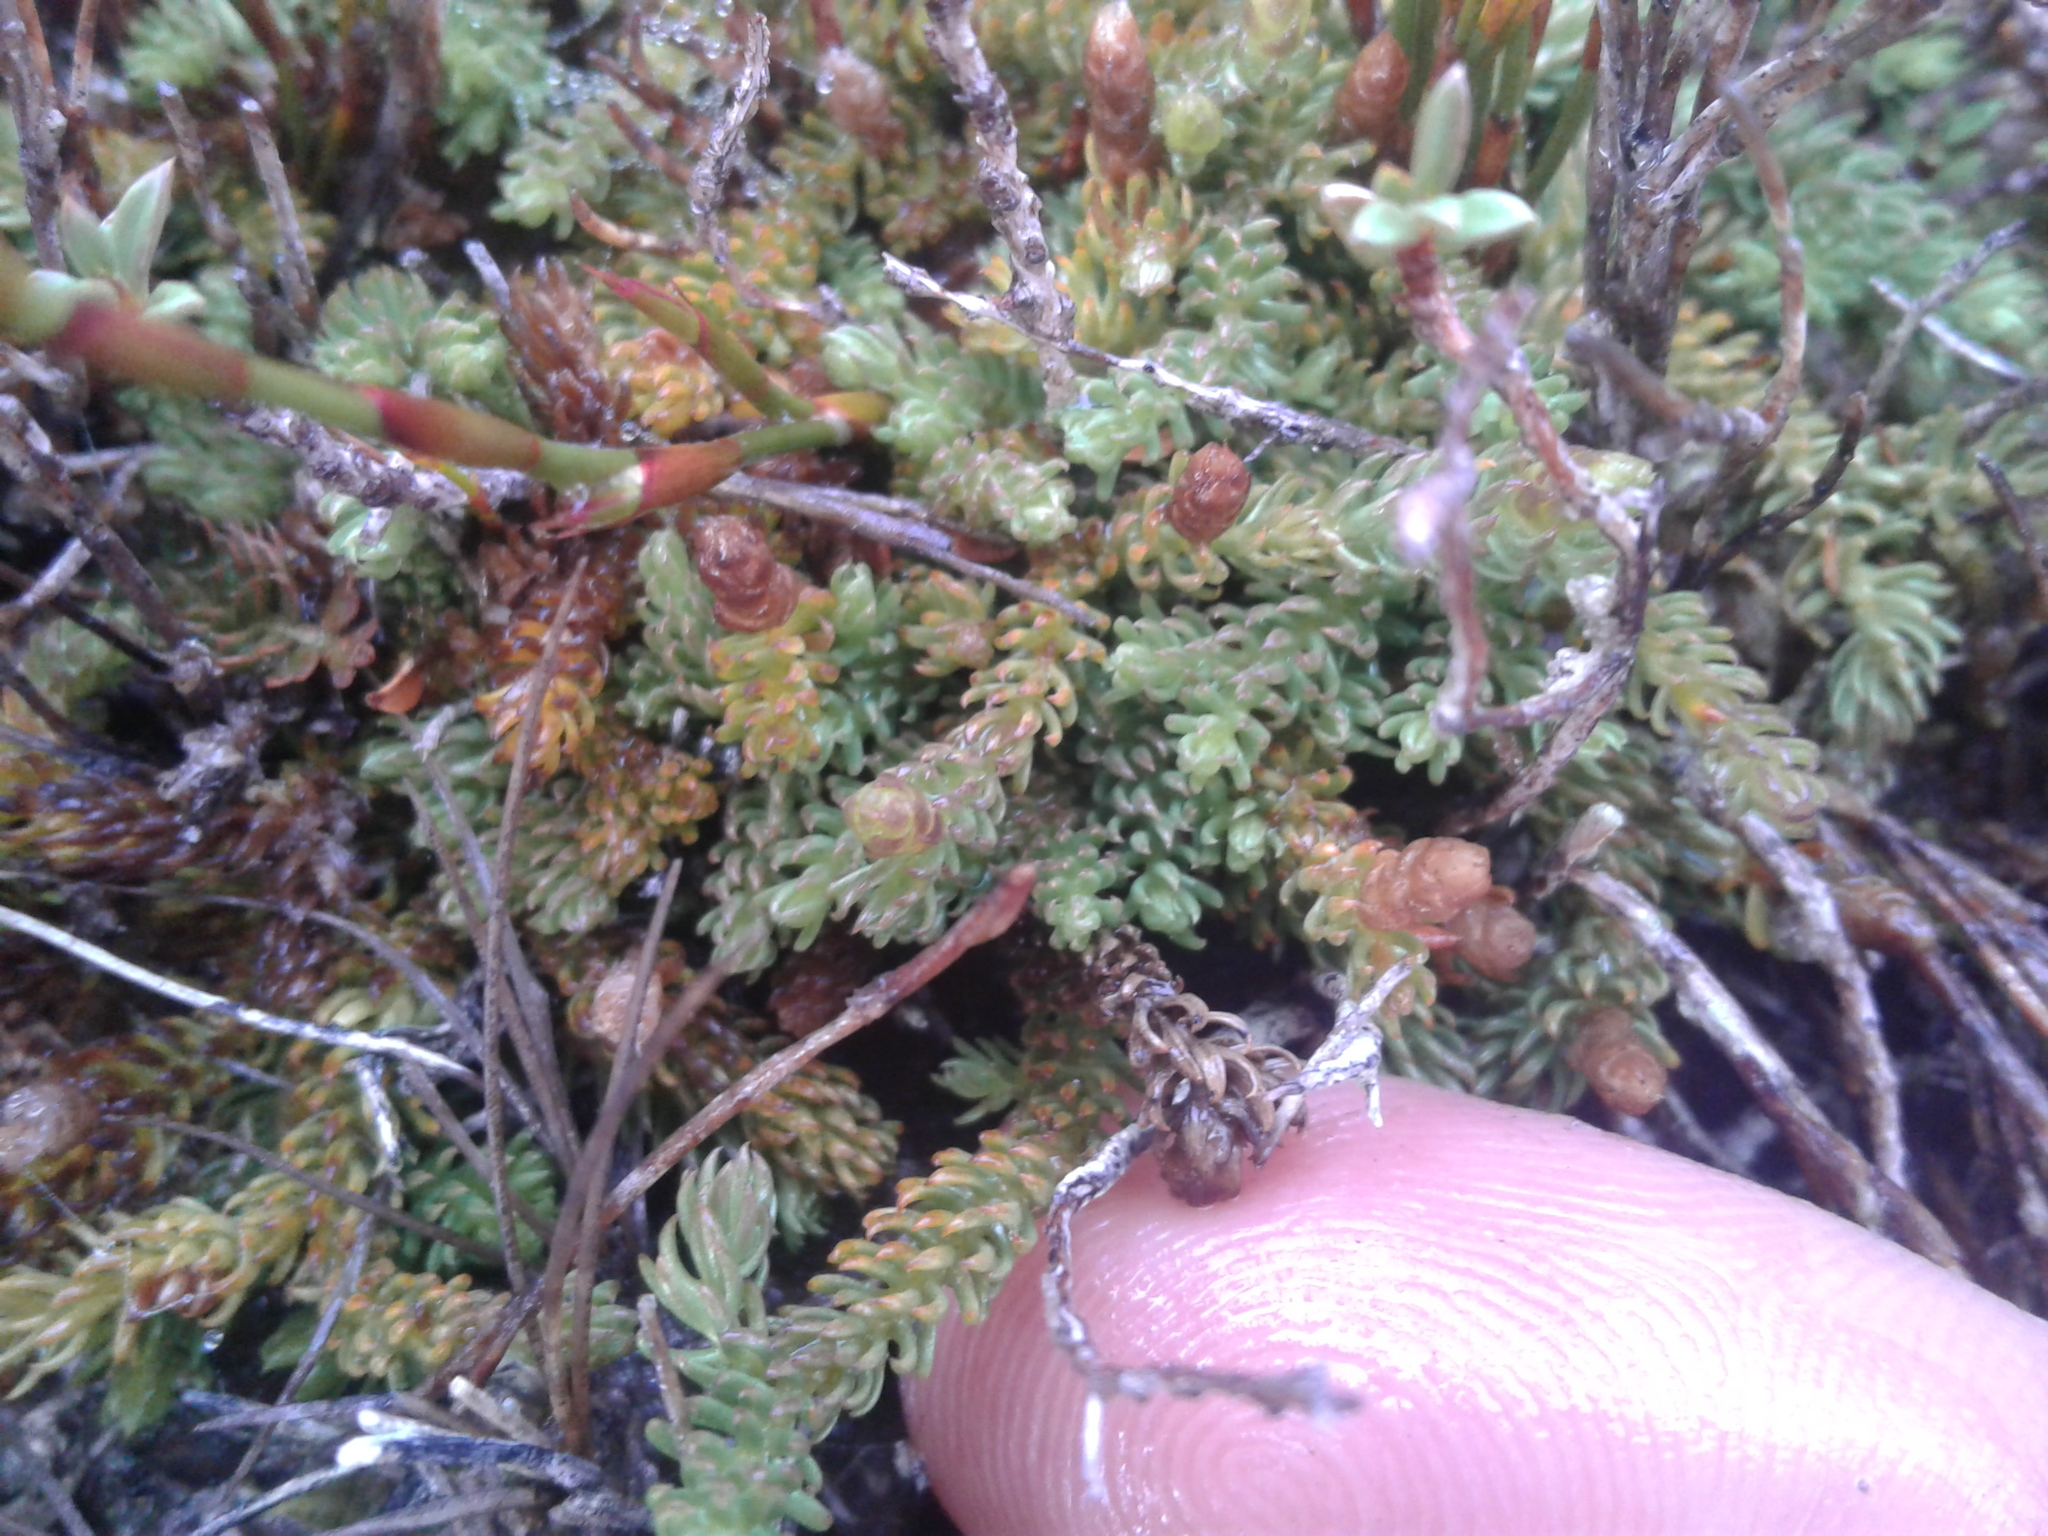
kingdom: Plantae
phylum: Tracheophyta
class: Lycopodiopsida
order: Lycopodiales
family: Lycopodiaceae
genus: Lateristachys
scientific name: Lateristachys diffusa
